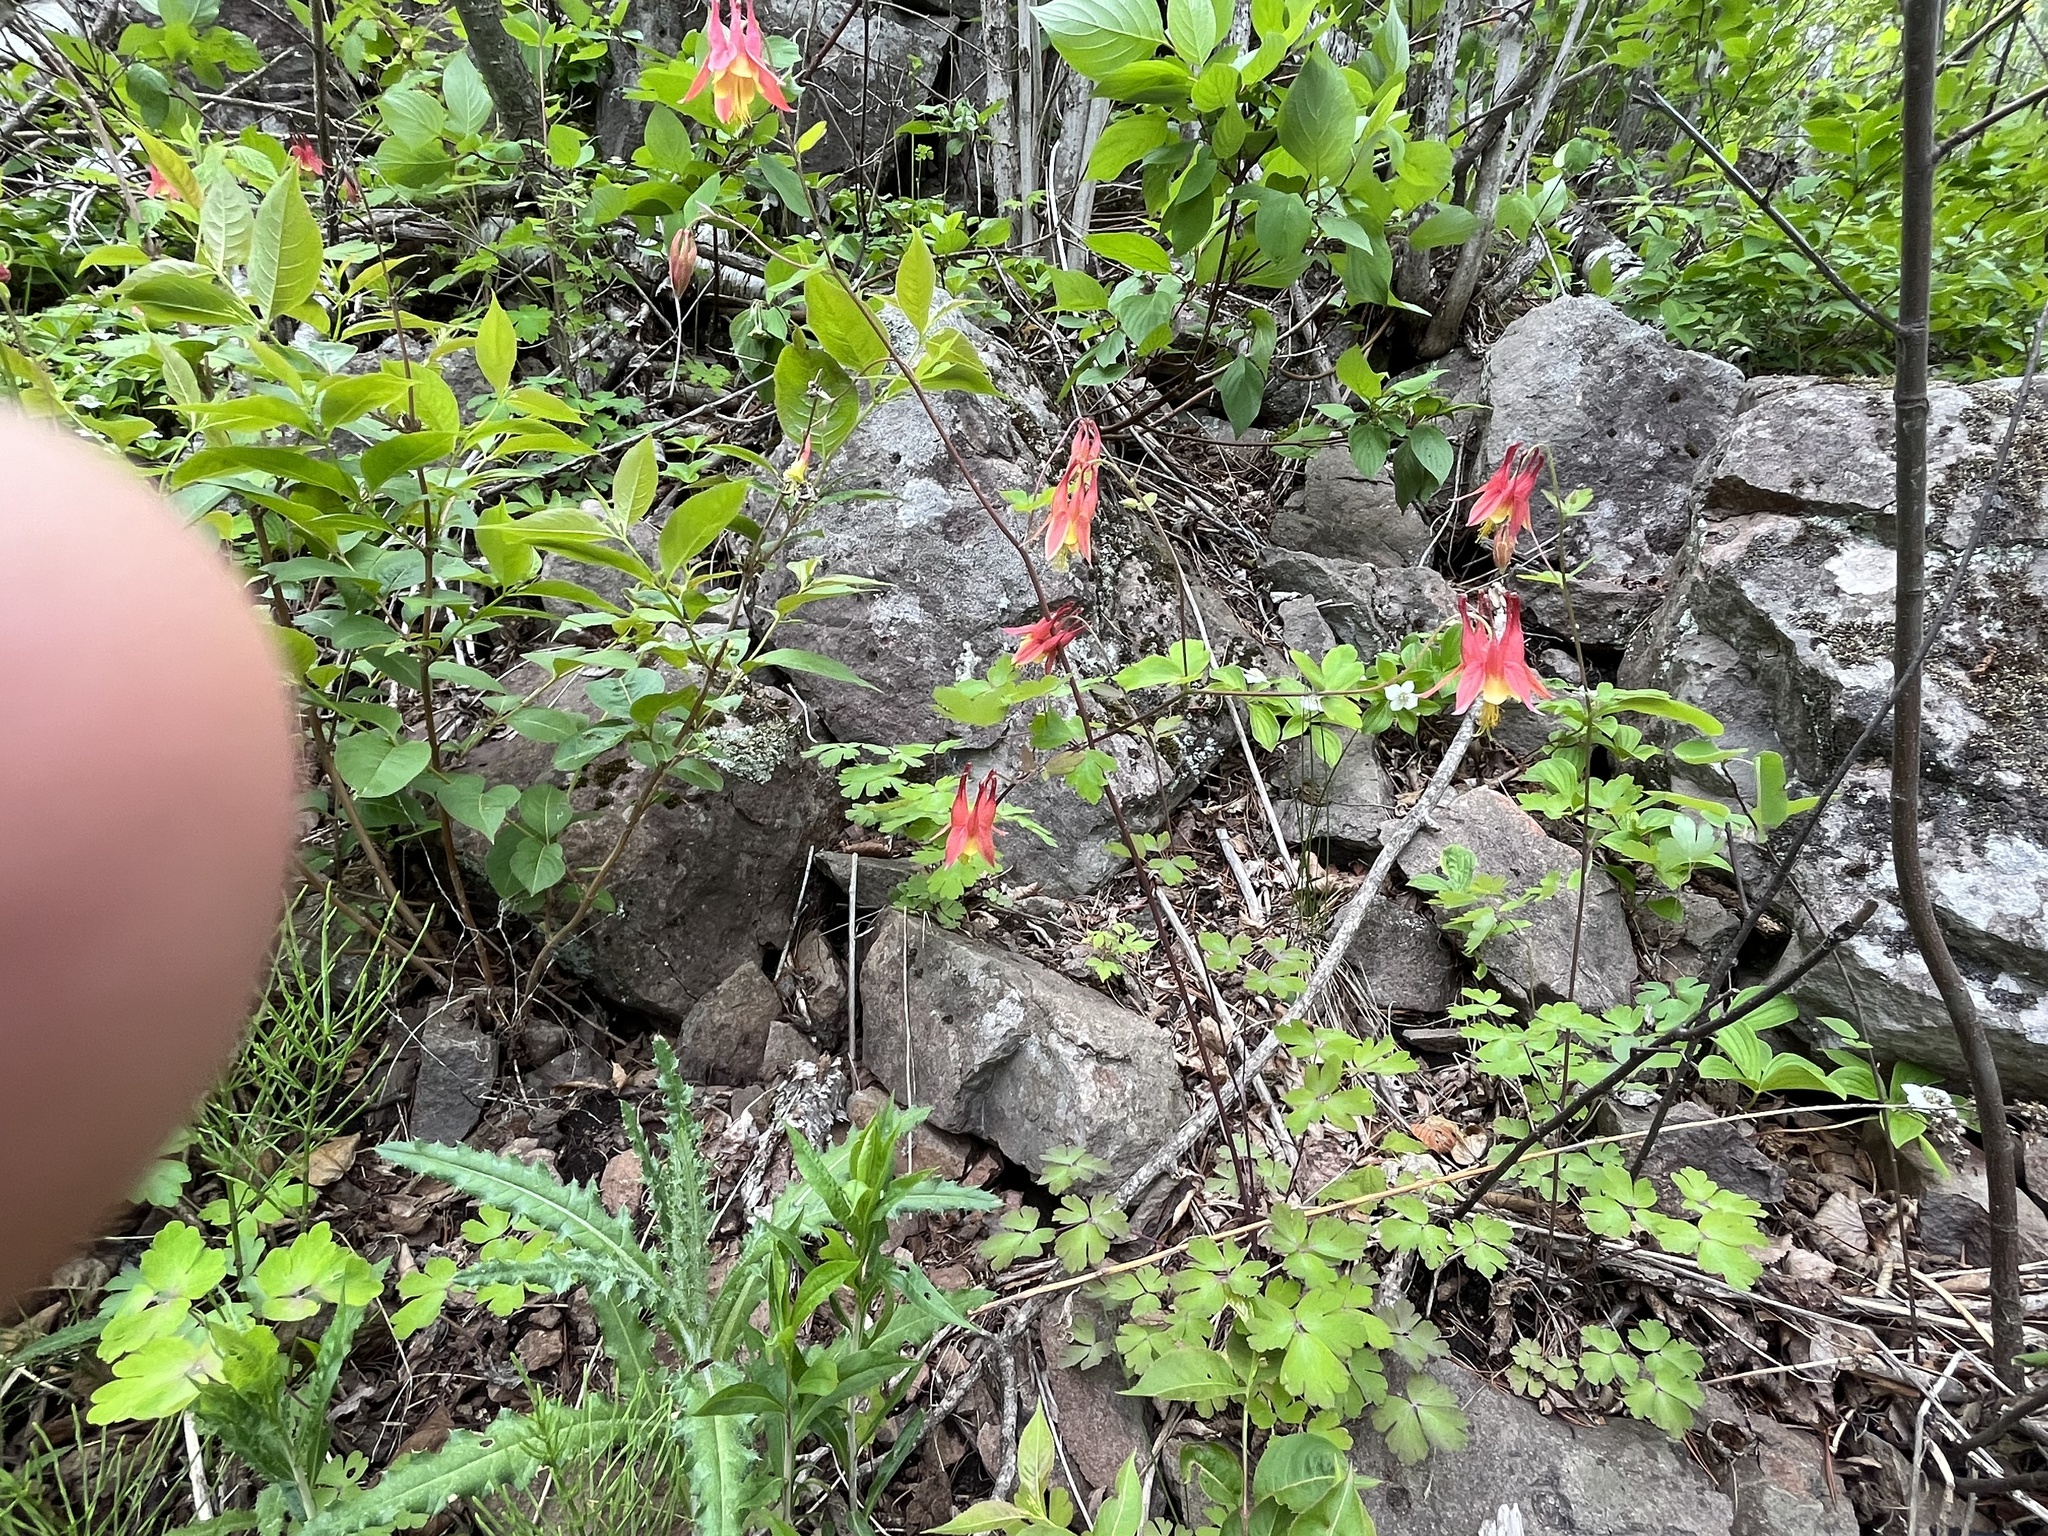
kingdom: Plantae
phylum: Tracheophyta
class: Magnoliopsida
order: Ranunculales
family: Ranunculaceae
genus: Aquilegia
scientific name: Aquilegia canadensis
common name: American columbine
